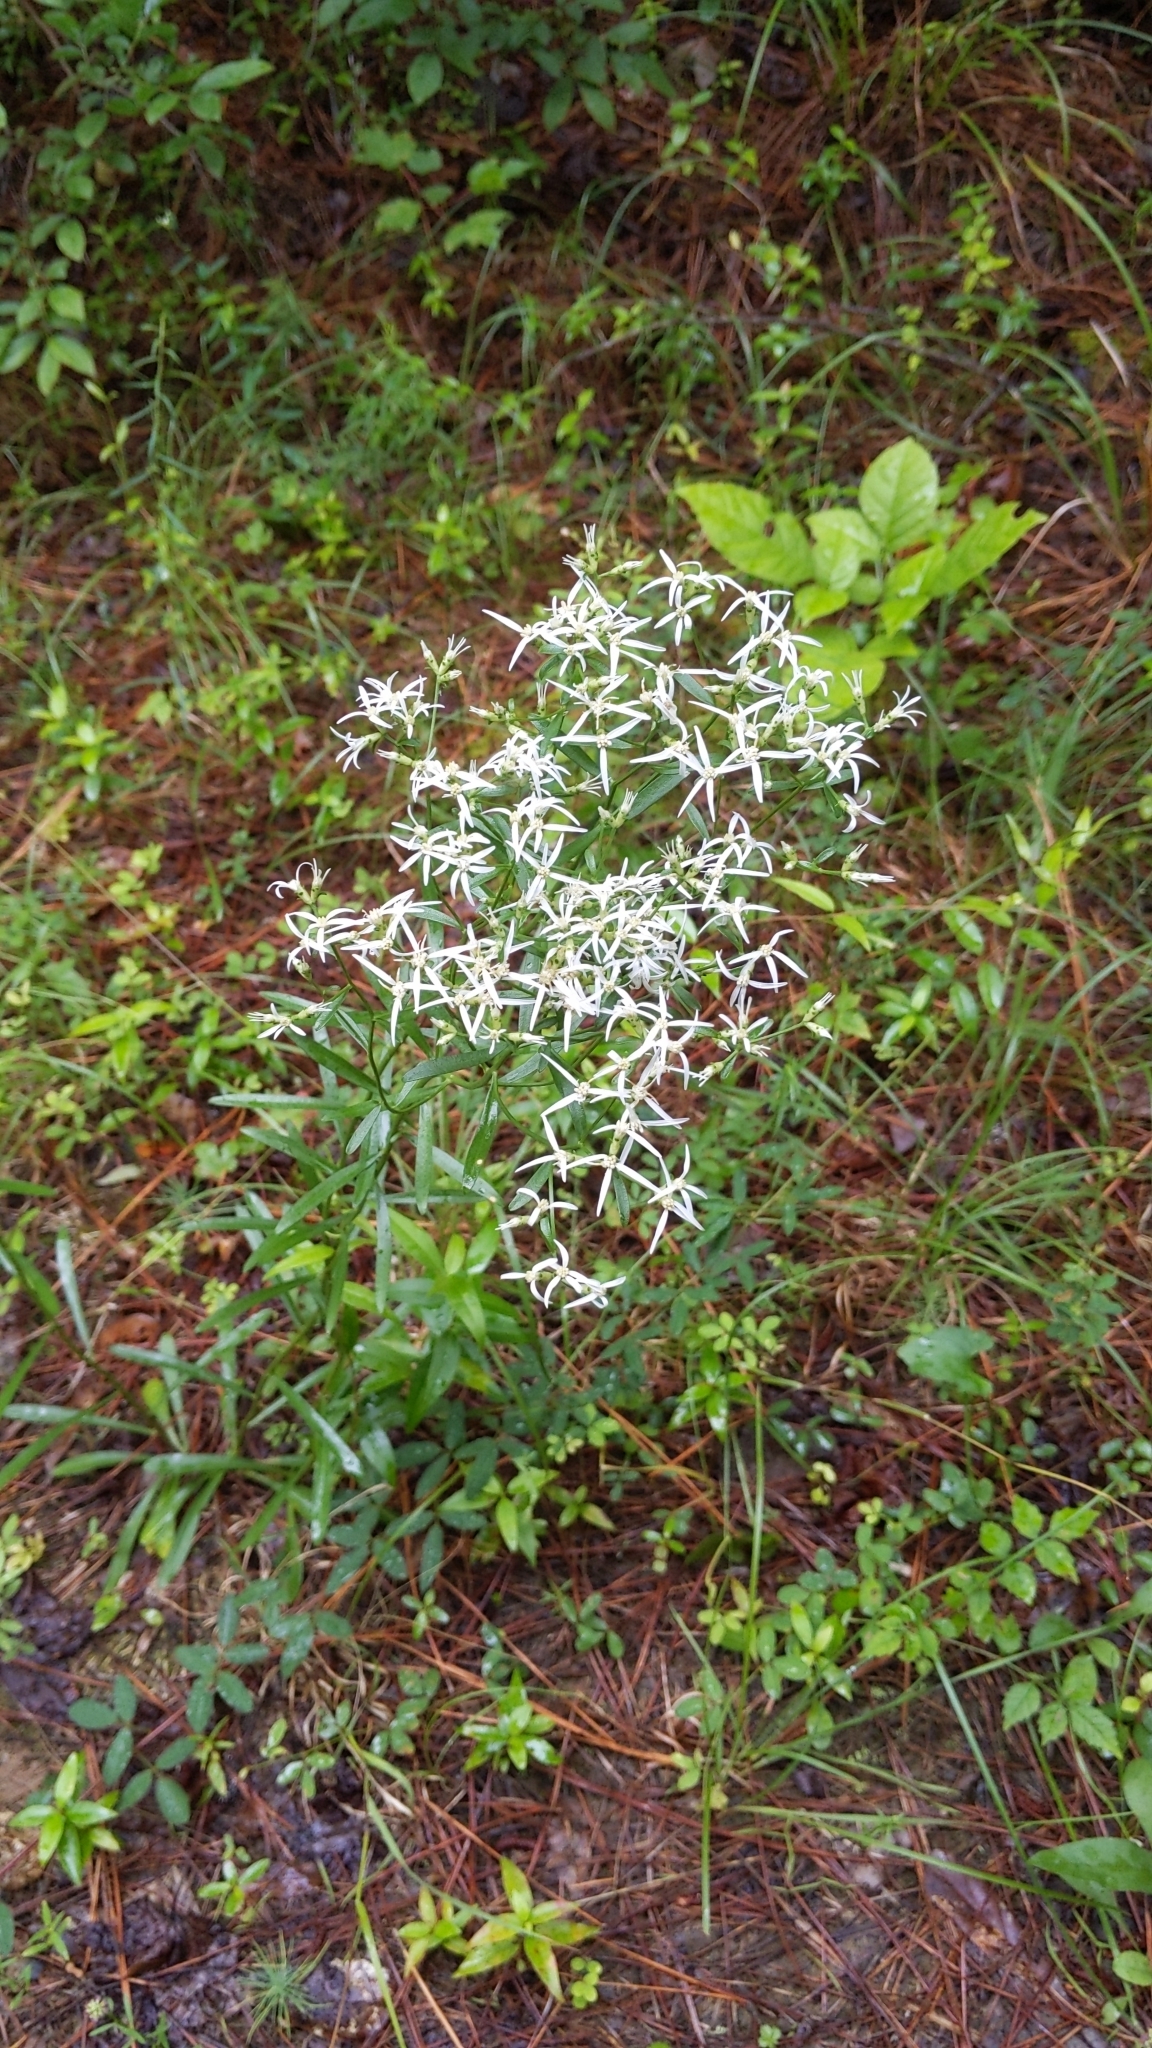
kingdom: Plantae
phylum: Tracheophyta
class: Magnoliopsida
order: Asterales
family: Asteraceae
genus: Sericocarpus
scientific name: Sericocarpus linifolius
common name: Narrow-leaf aster
